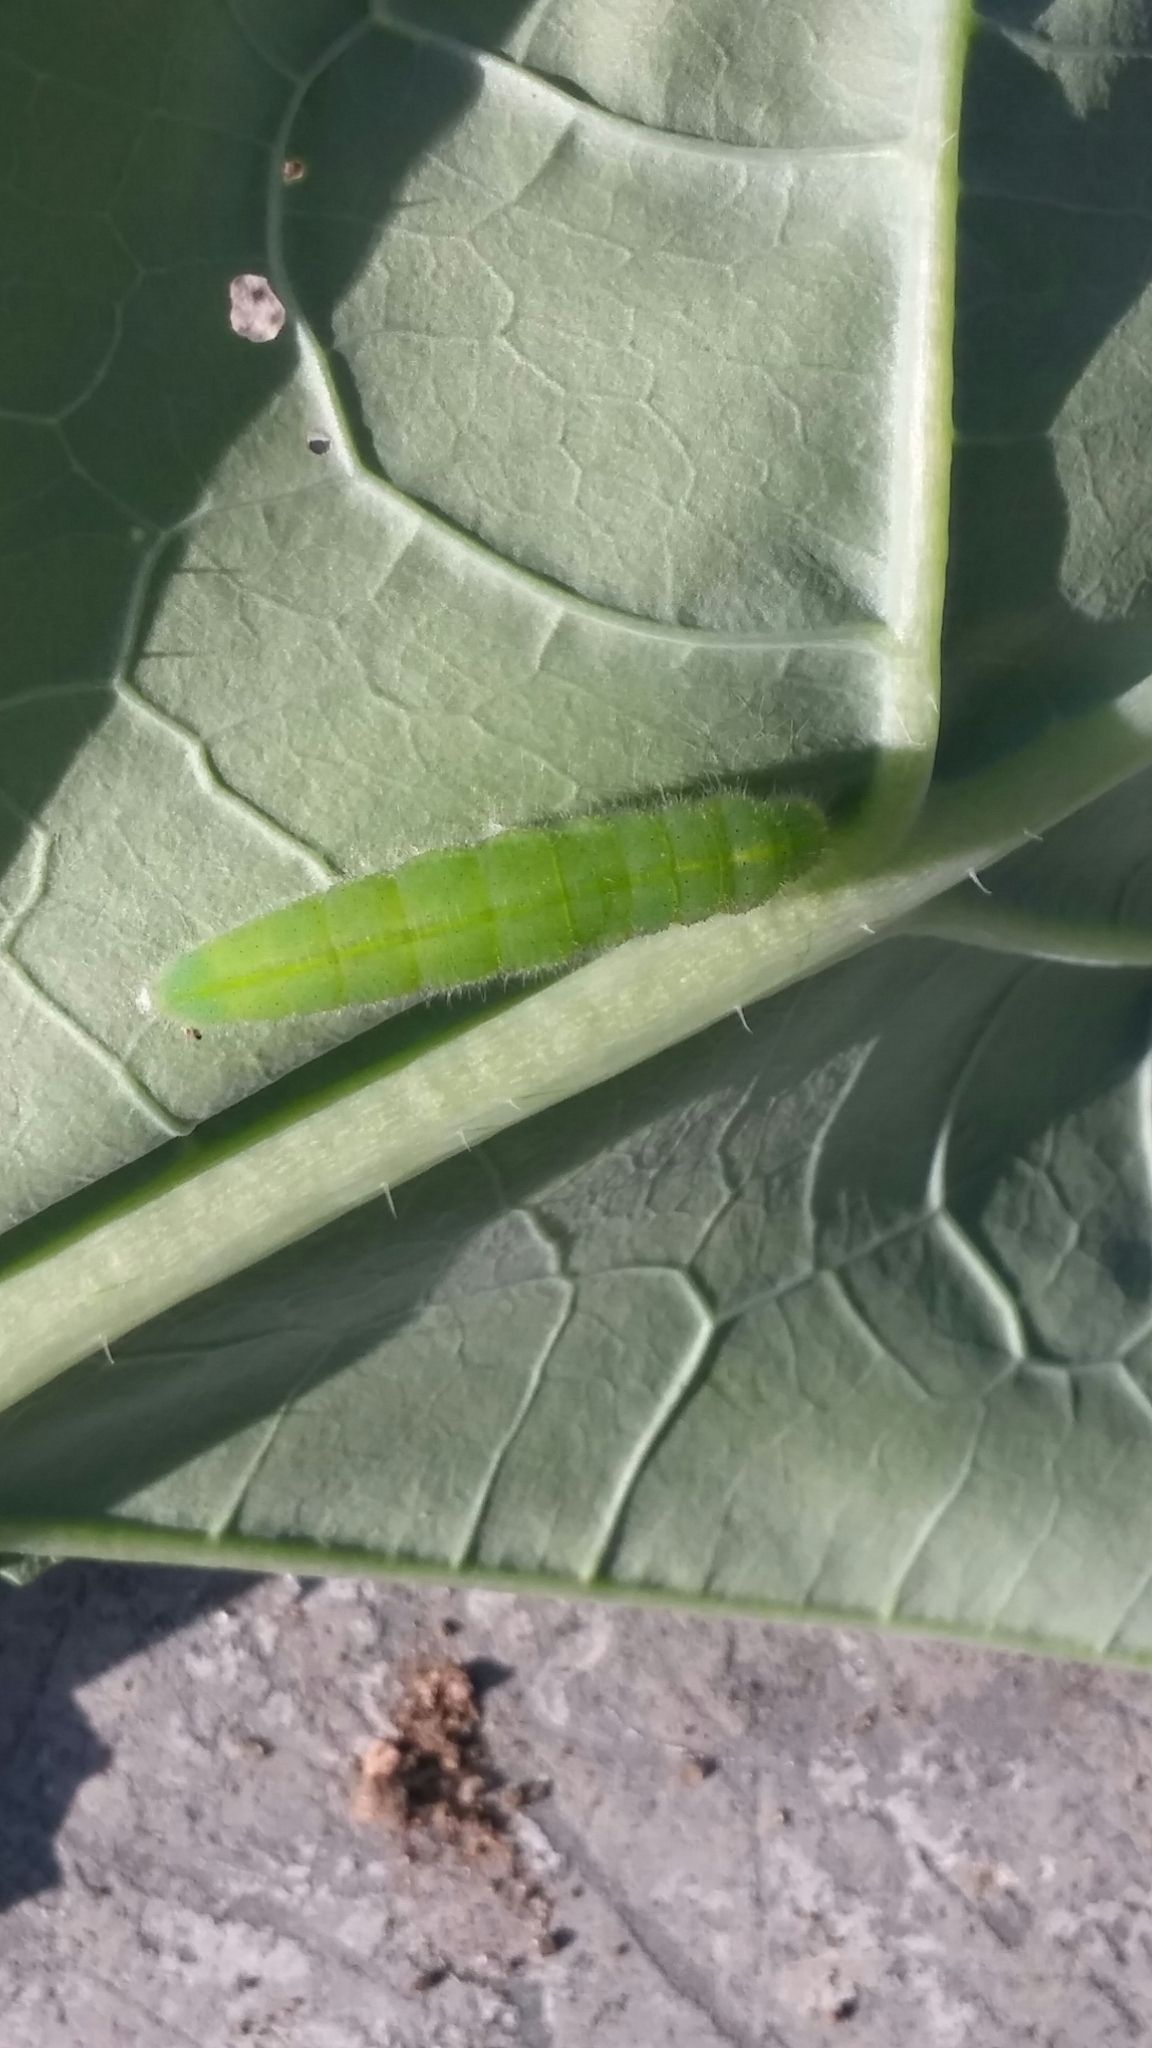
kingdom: Animalia
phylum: Arthropoda
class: Insecta
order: Lepidoptera
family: Pieridae
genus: Pieris
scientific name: Pieris rapae
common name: Small white
